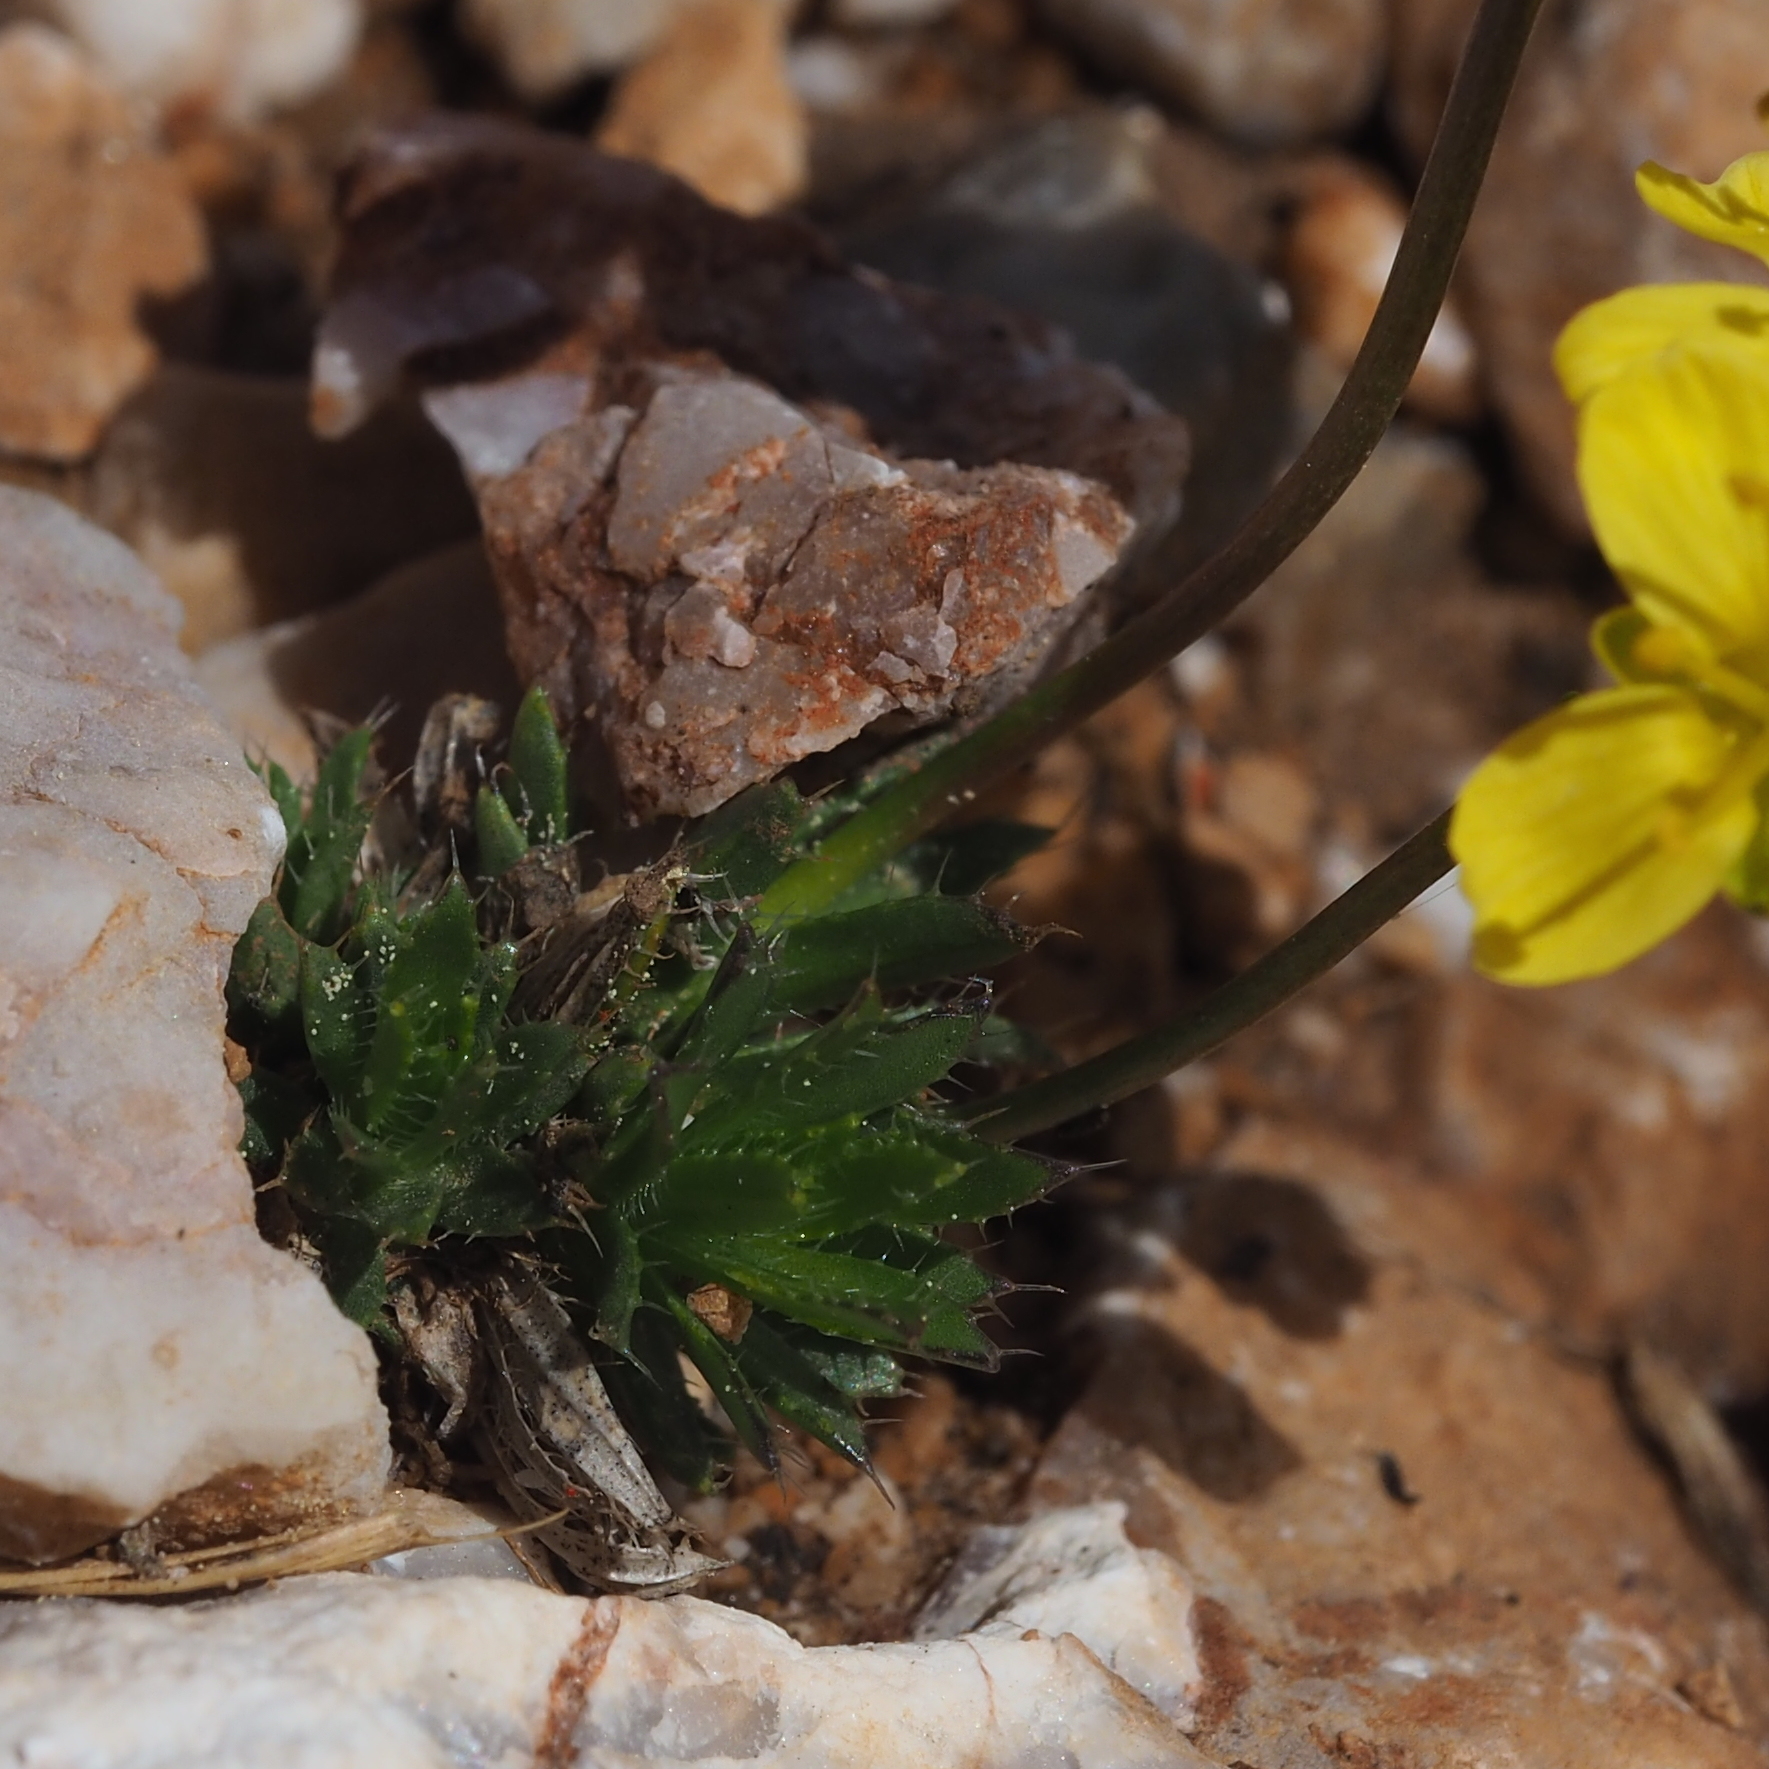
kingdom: Plantae
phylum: Tracheophyta
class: Magnoliopsida
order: Brassicales
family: Brassicaceae
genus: Draba
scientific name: Draba aizoides
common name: Yellow whitlowgrass
